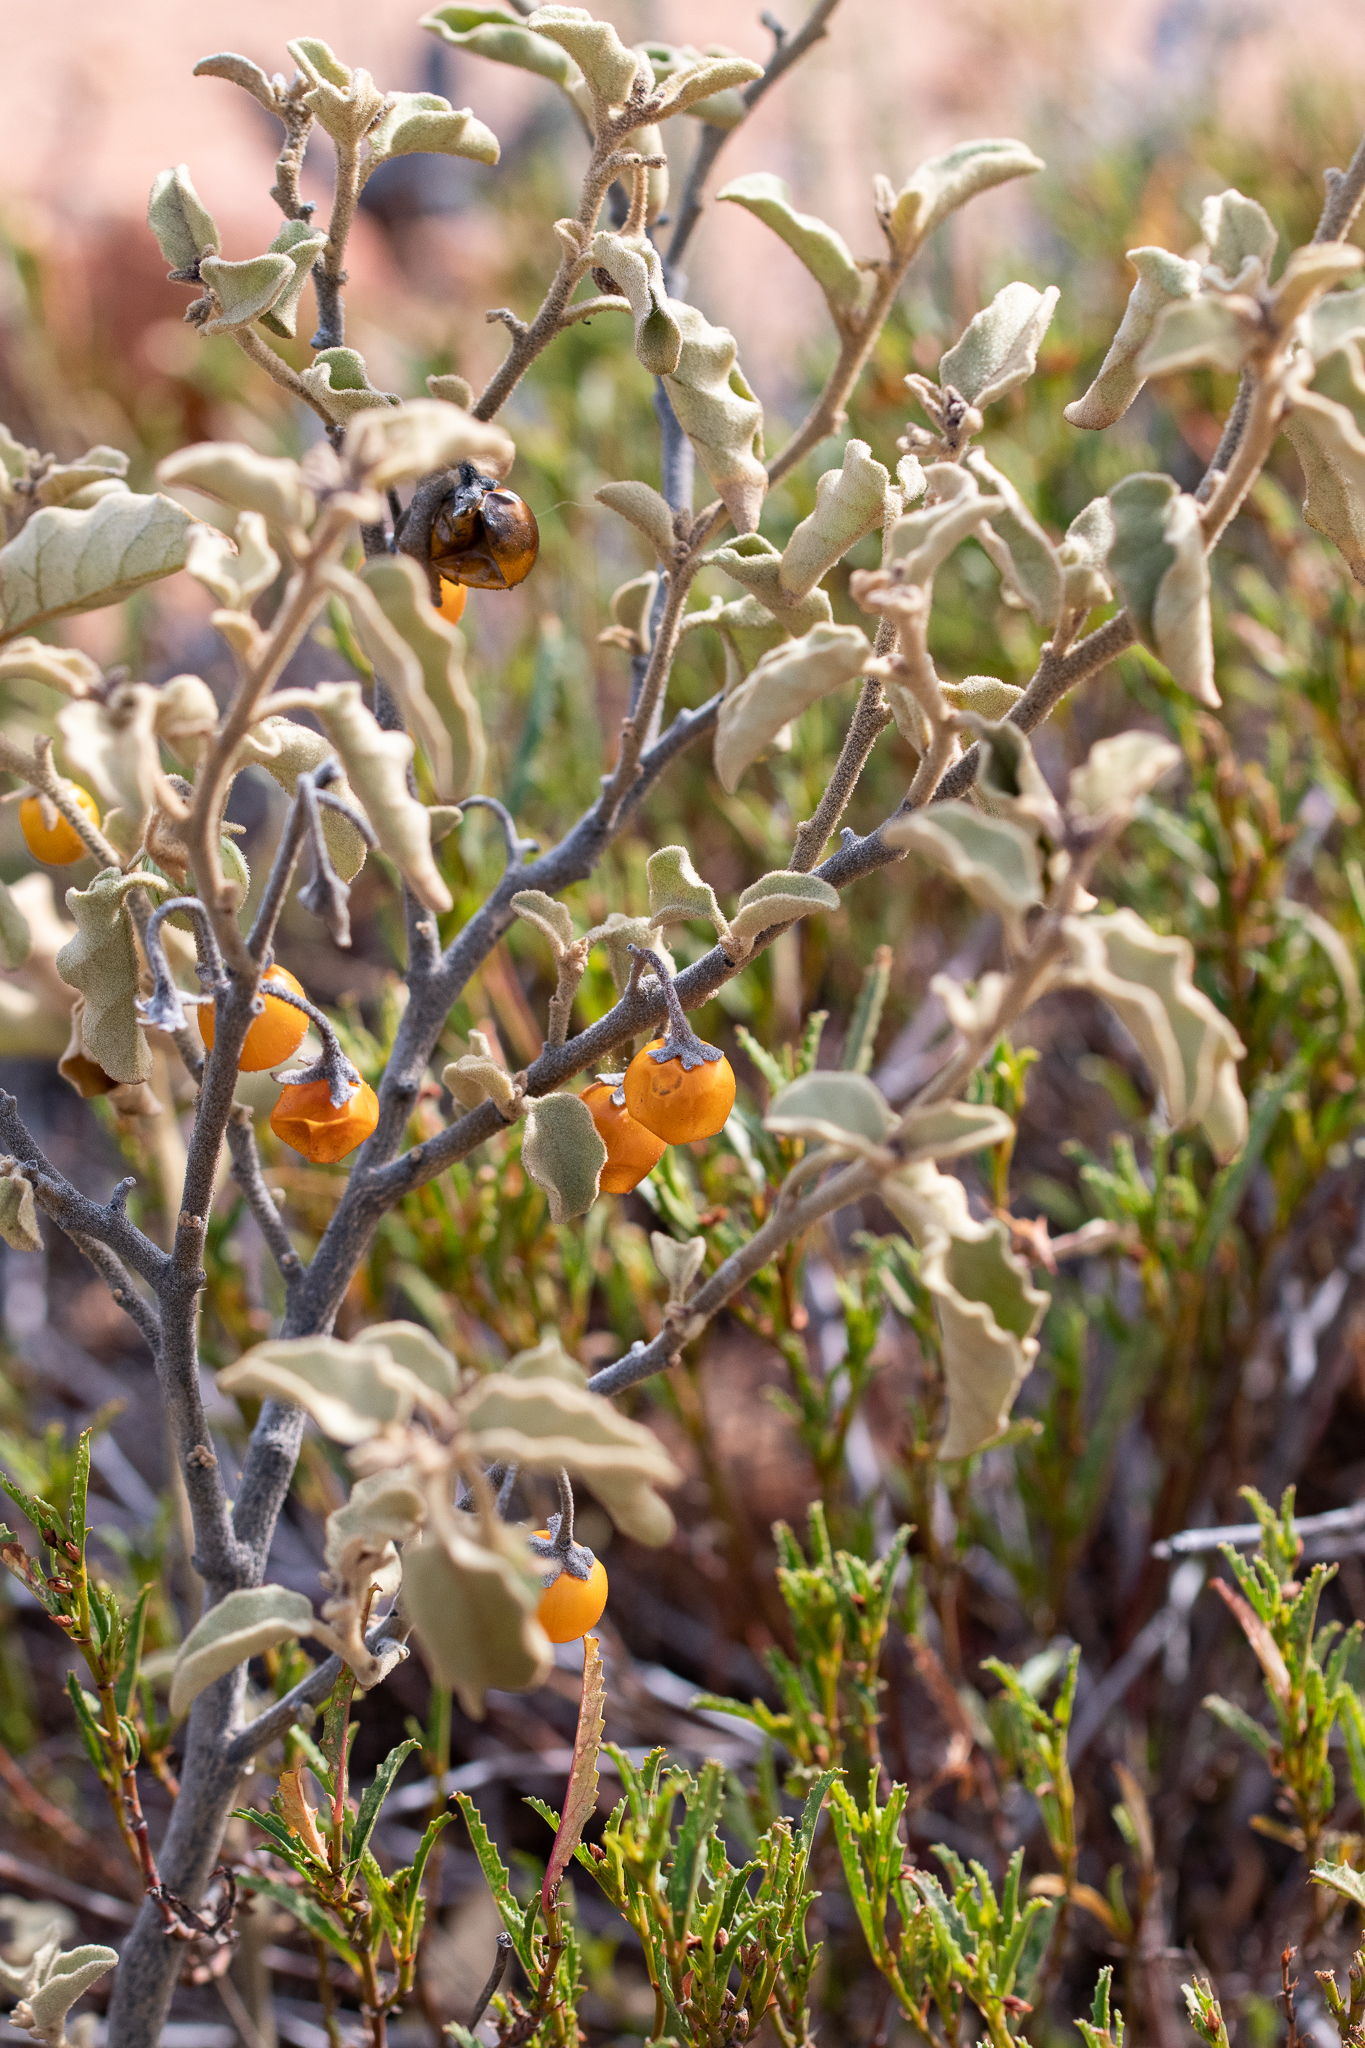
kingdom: Plantae
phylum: Tracheophyta
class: Magnoliopsida
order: Solanales
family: Solanaceae
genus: Solanum
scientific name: Solanum tomentosum
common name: Wild aubergine
